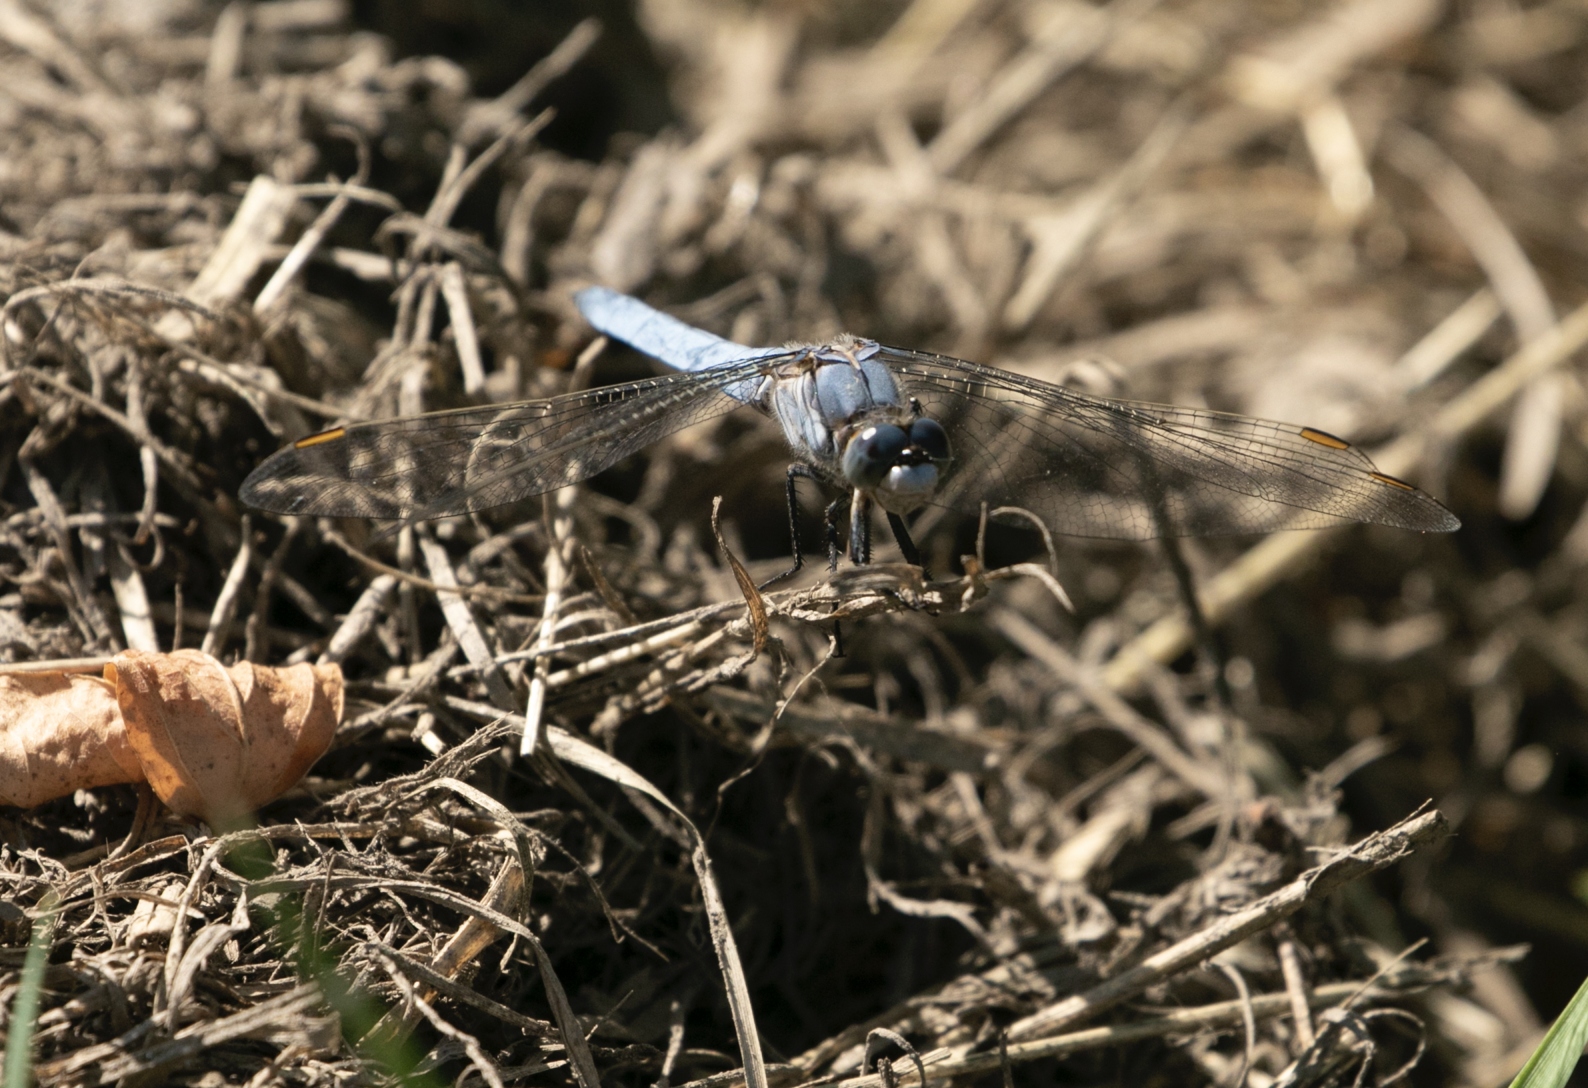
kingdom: Animalia
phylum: Arthropoda
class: Insecta
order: Odonata
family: Libellulidae
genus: Orthetrum
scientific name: Orthetrum brunneum
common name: Southern skimmer
